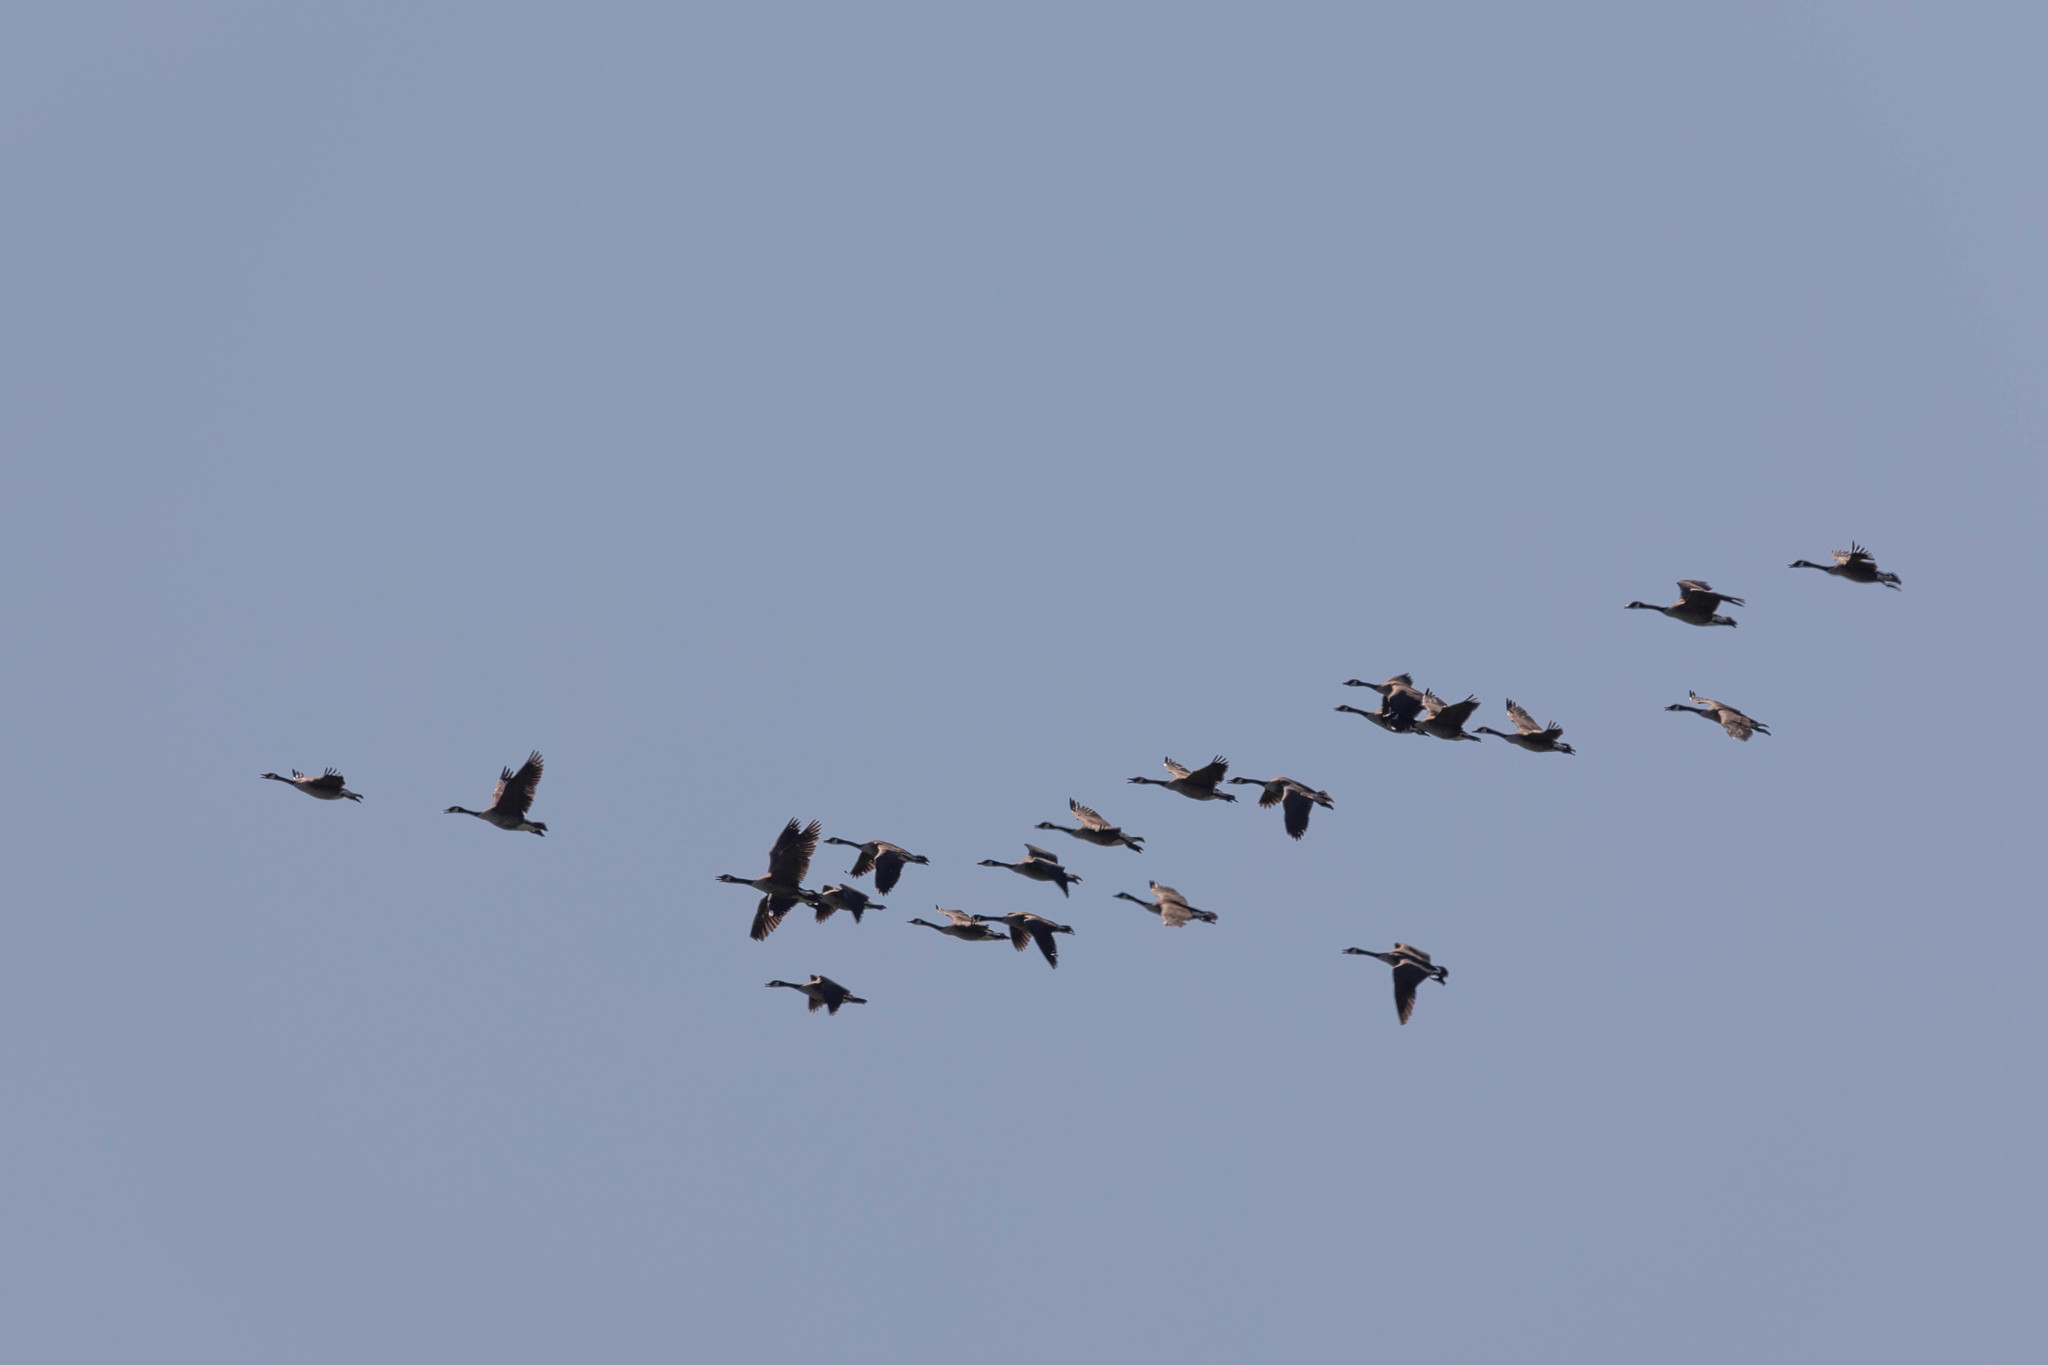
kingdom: Animalia
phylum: Chordata
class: Aves
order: Anseriformes
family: Anatidae
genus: Branta
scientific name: Branta canadensis
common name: Canada goose
